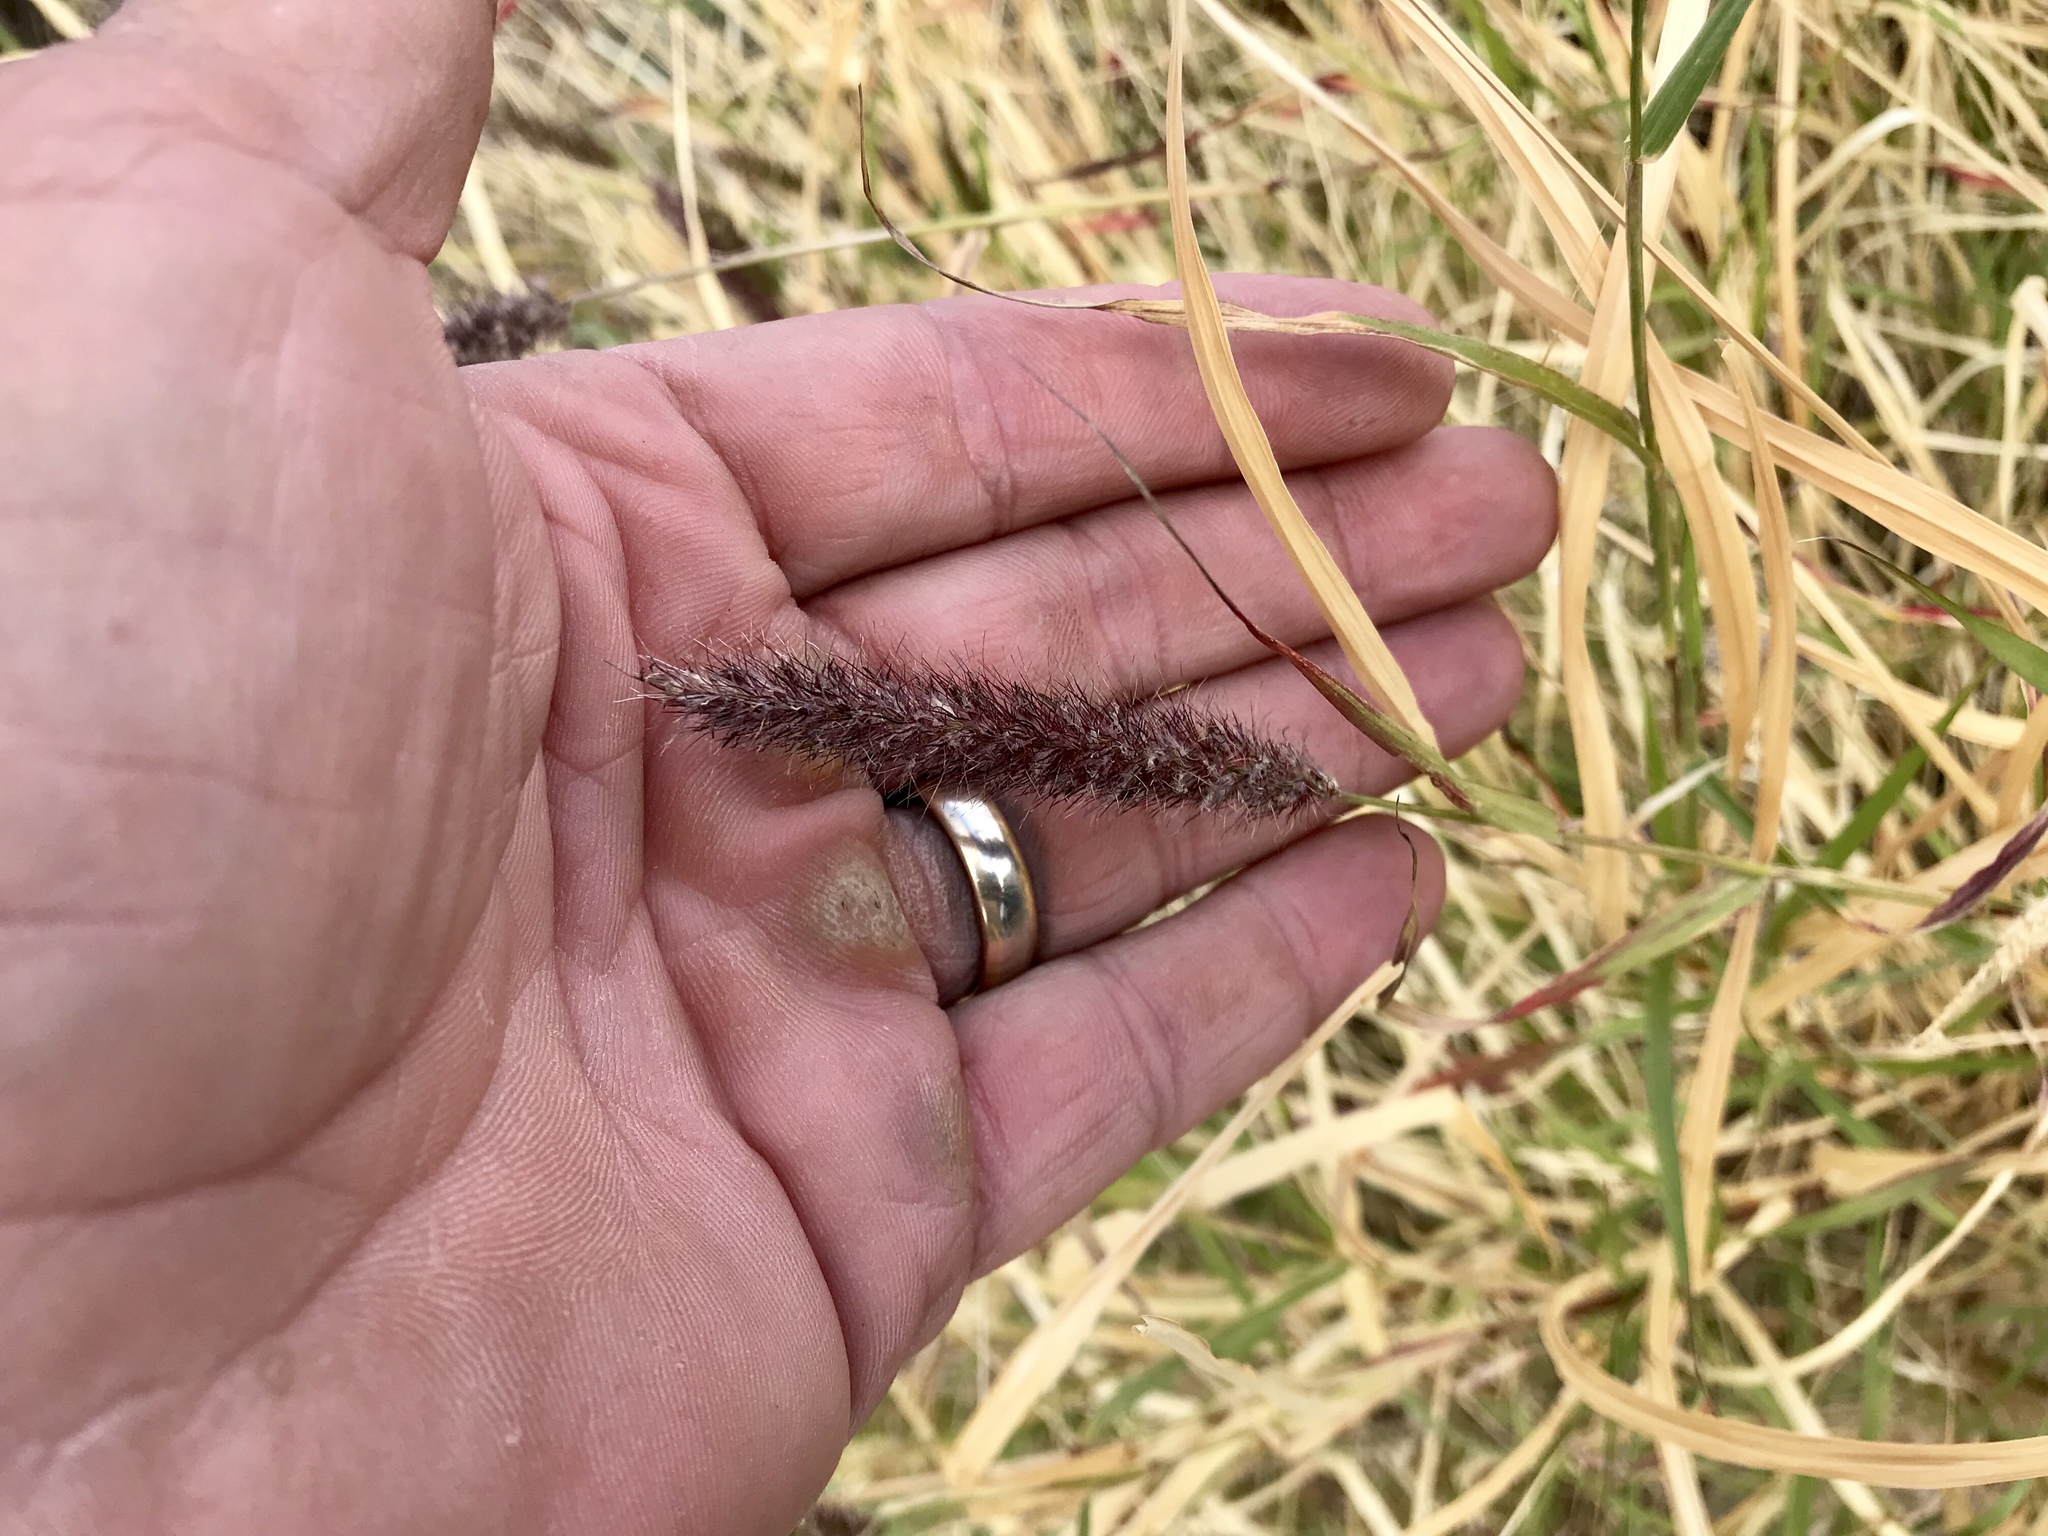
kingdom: Plantae
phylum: Tracheophyta
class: Liliopsida
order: Poales
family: Poaceae
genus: Cenchrus
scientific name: Cenchrus ciliaris
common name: Buffelgrass
